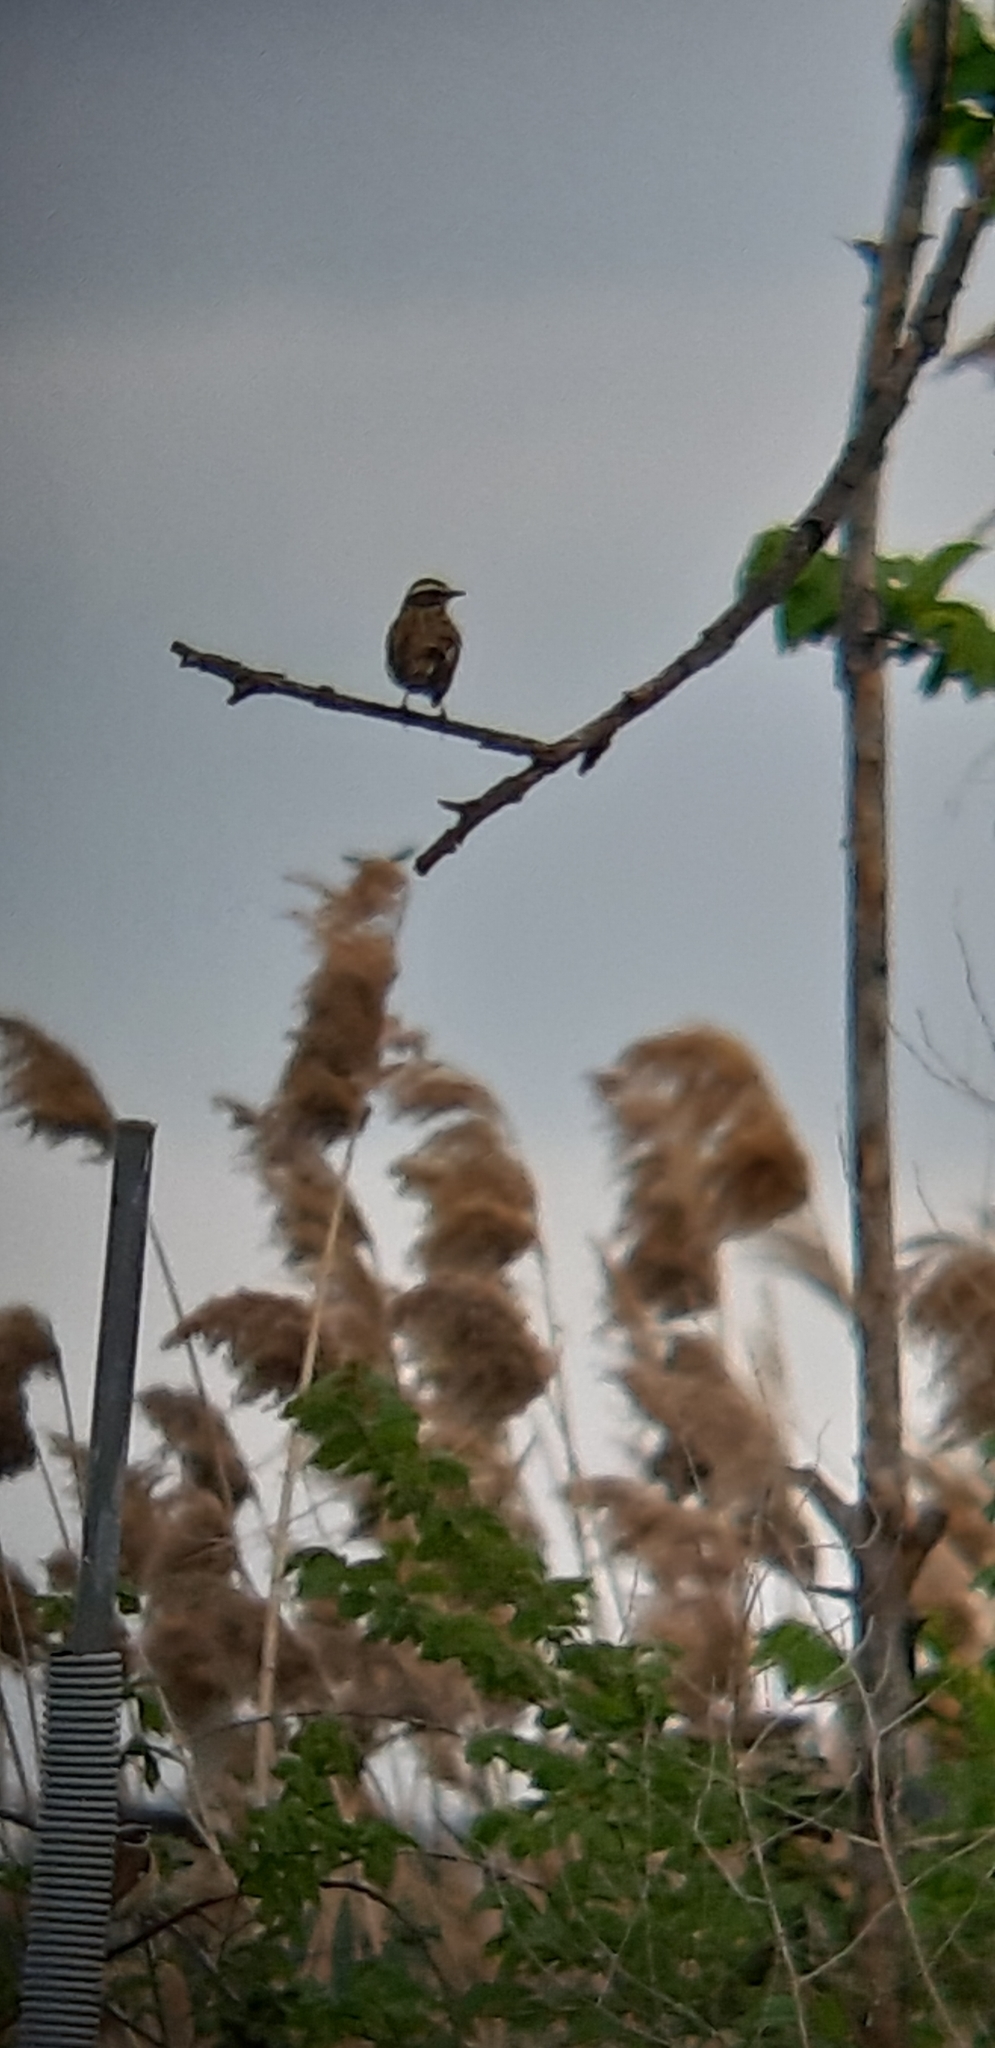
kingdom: Animalia
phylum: Chordata
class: Aves
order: Passeriformes
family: Muscicapidae
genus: Saxicola
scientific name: Saxicola rubetra
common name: Whinchat
